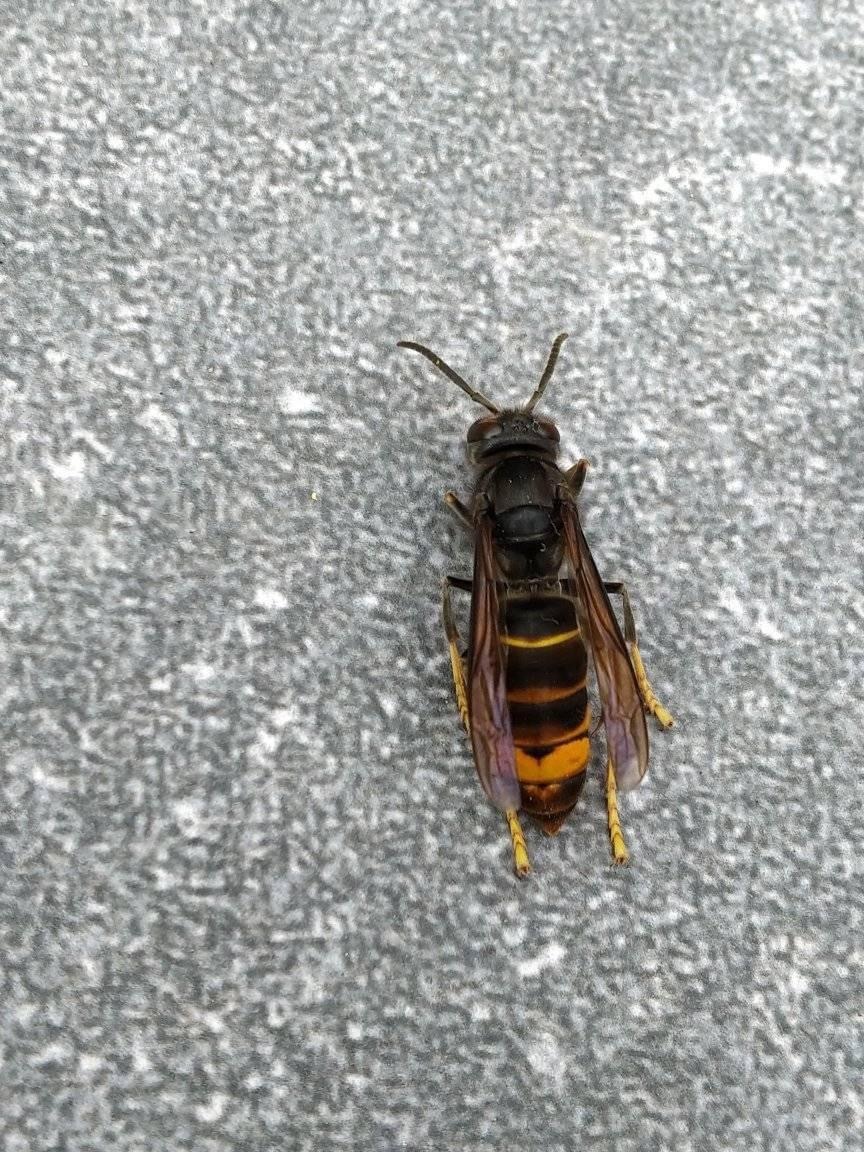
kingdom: Animalia
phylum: Arthropoda
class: Insecta
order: Hymenoptera
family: Vespidae
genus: Vespa
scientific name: Vespa velutina
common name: Asian hornet
